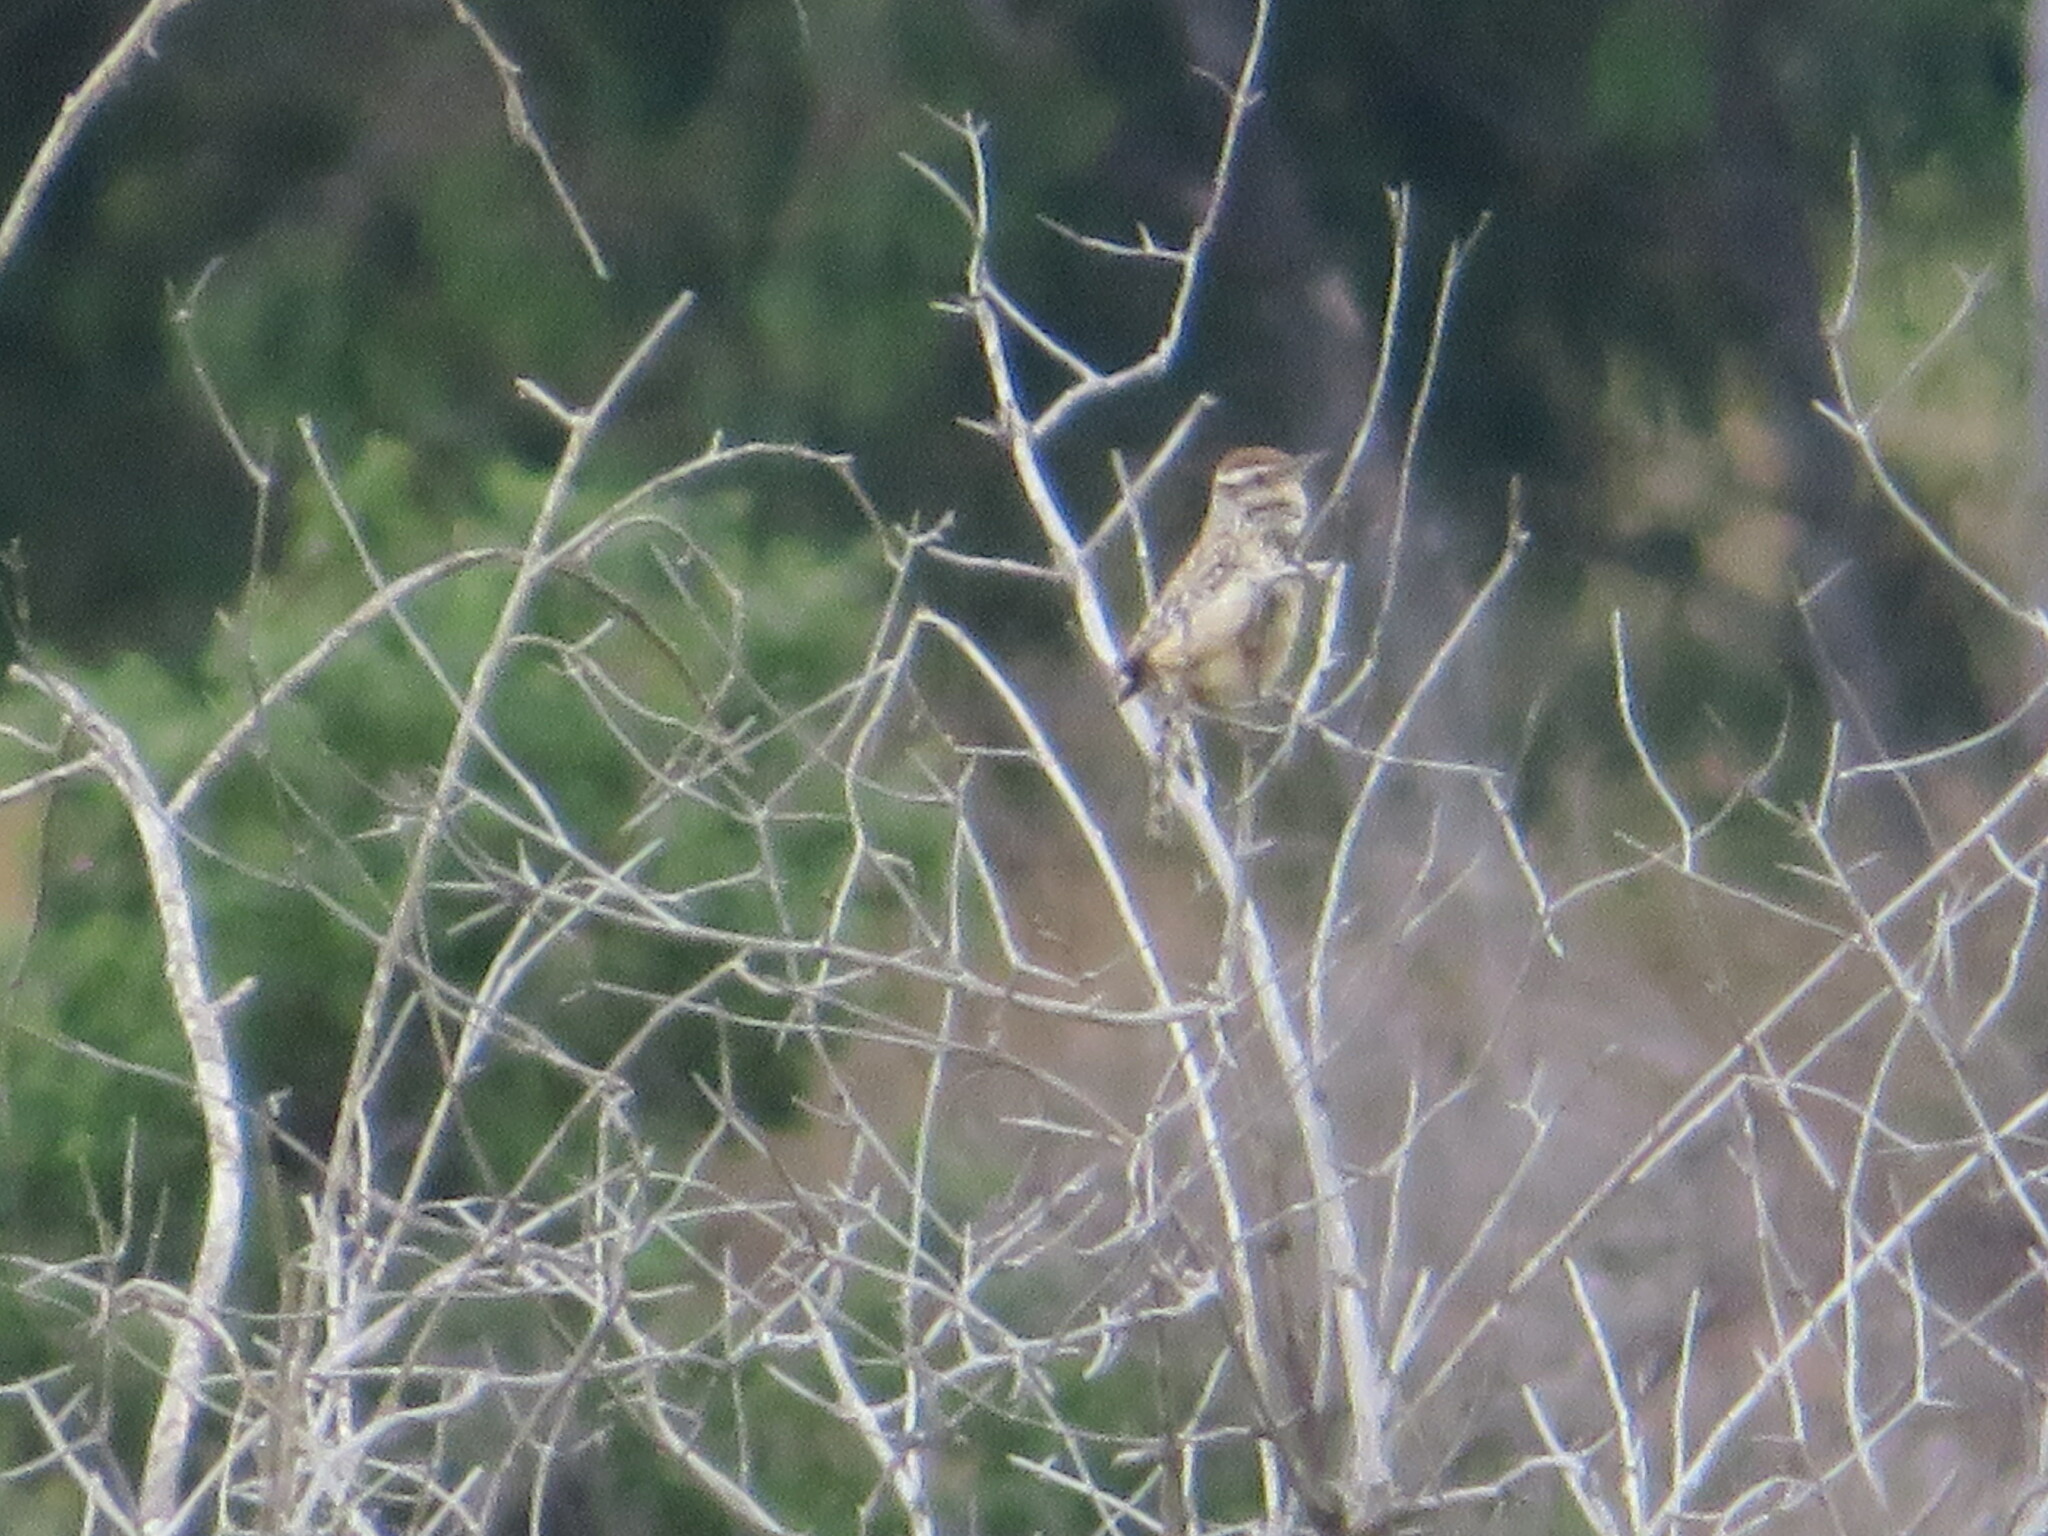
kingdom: Animalia
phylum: Chordata
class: Aves
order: Passeriformes
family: Troglodytidae
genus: Campylorhynchus
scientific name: Campylorhynchus brunneicapillus
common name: Cactus wren
